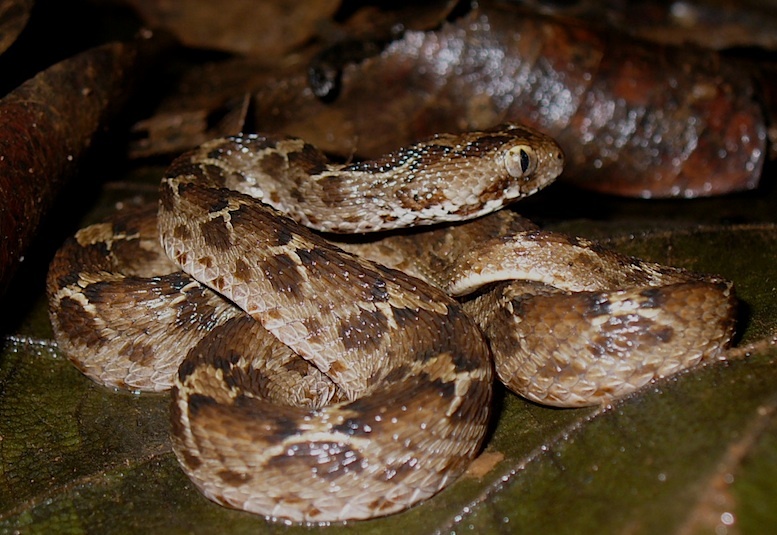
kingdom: Animalia
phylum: Chordata
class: Squamata
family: Viperidae
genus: Echis
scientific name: Echis carinatus
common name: Saw-scaled viper
